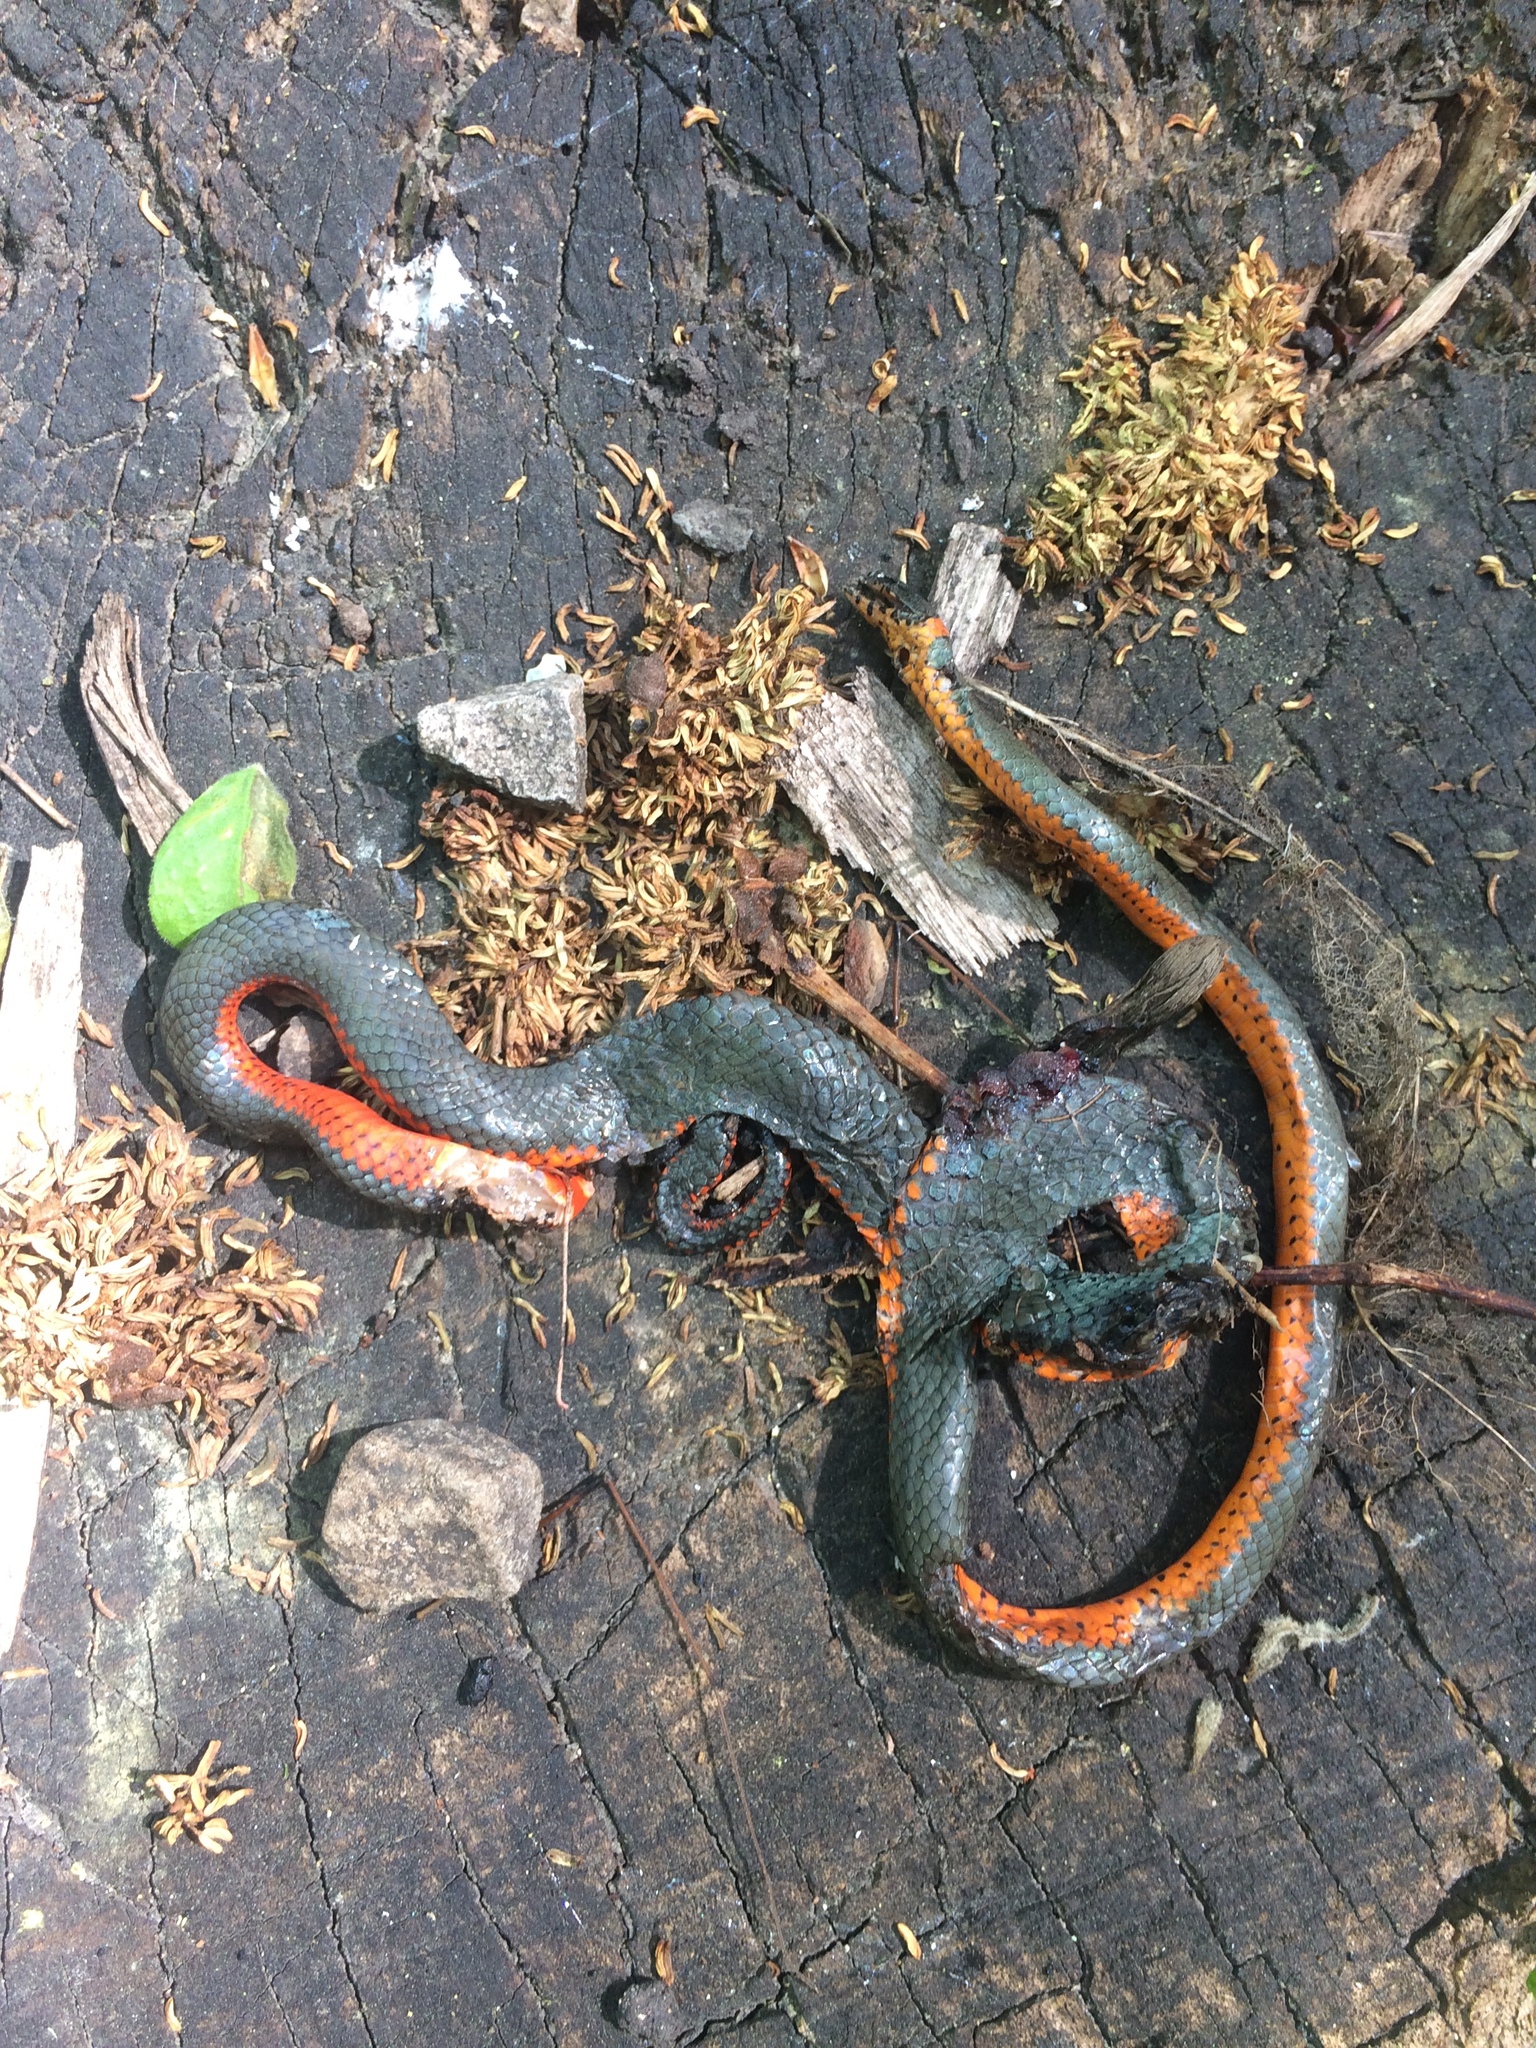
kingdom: Animalia
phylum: Chordata
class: Squamata
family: Colubridae
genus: Diadophis
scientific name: Diadophis punctatus
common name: Ringneck snake
